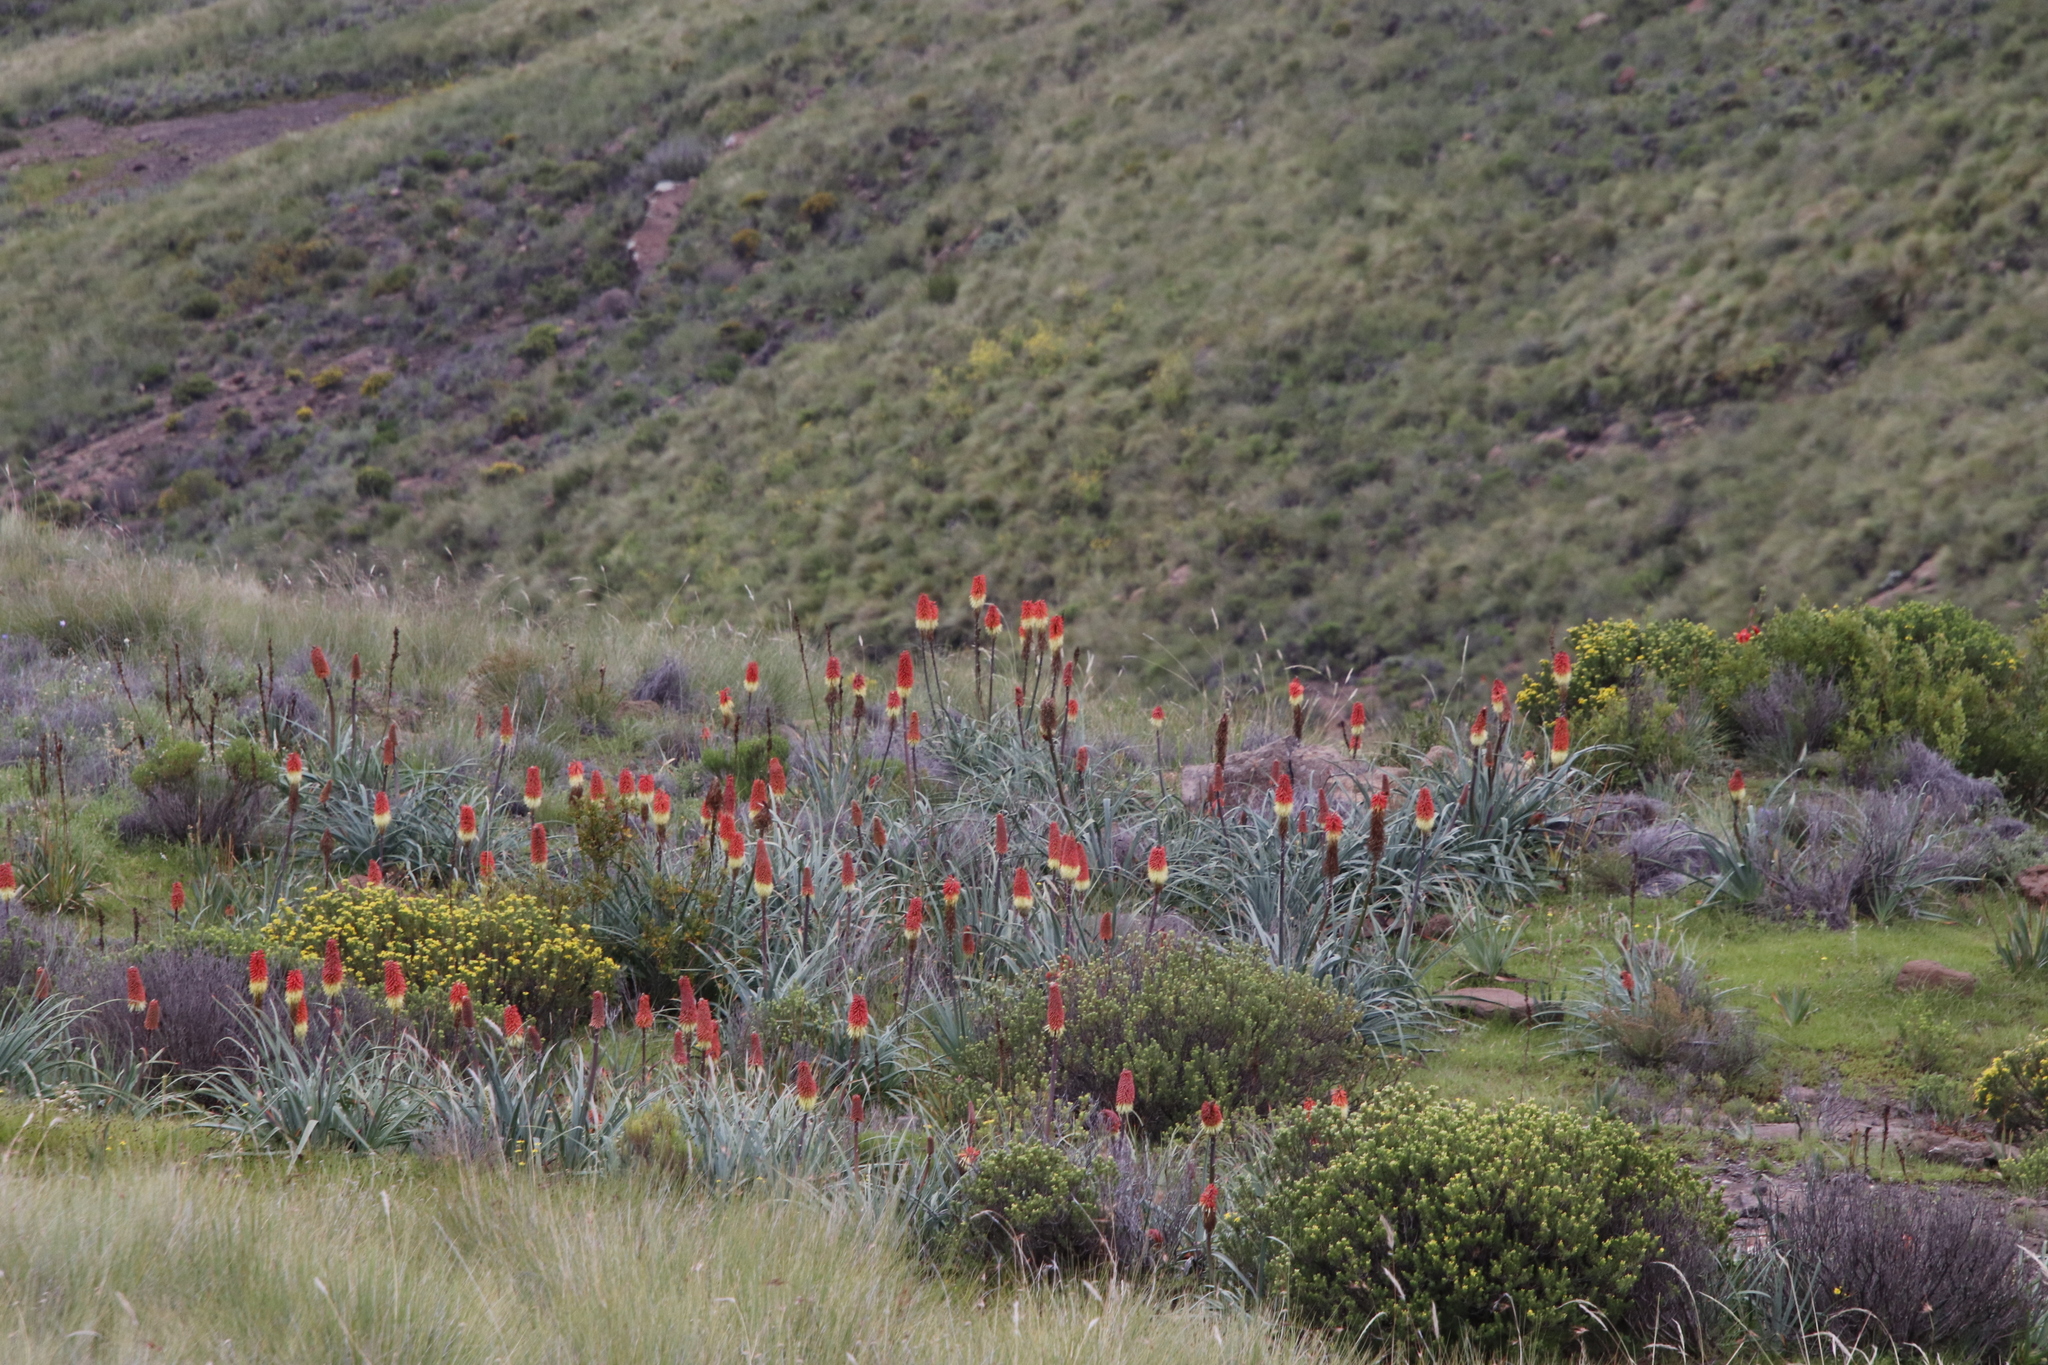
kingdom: Plantae
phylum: Tracheophyta
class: Liliopsida
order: Asparagales
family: Asphodelaceae
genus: Kniphofia
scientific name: Kniphofia caulescens
